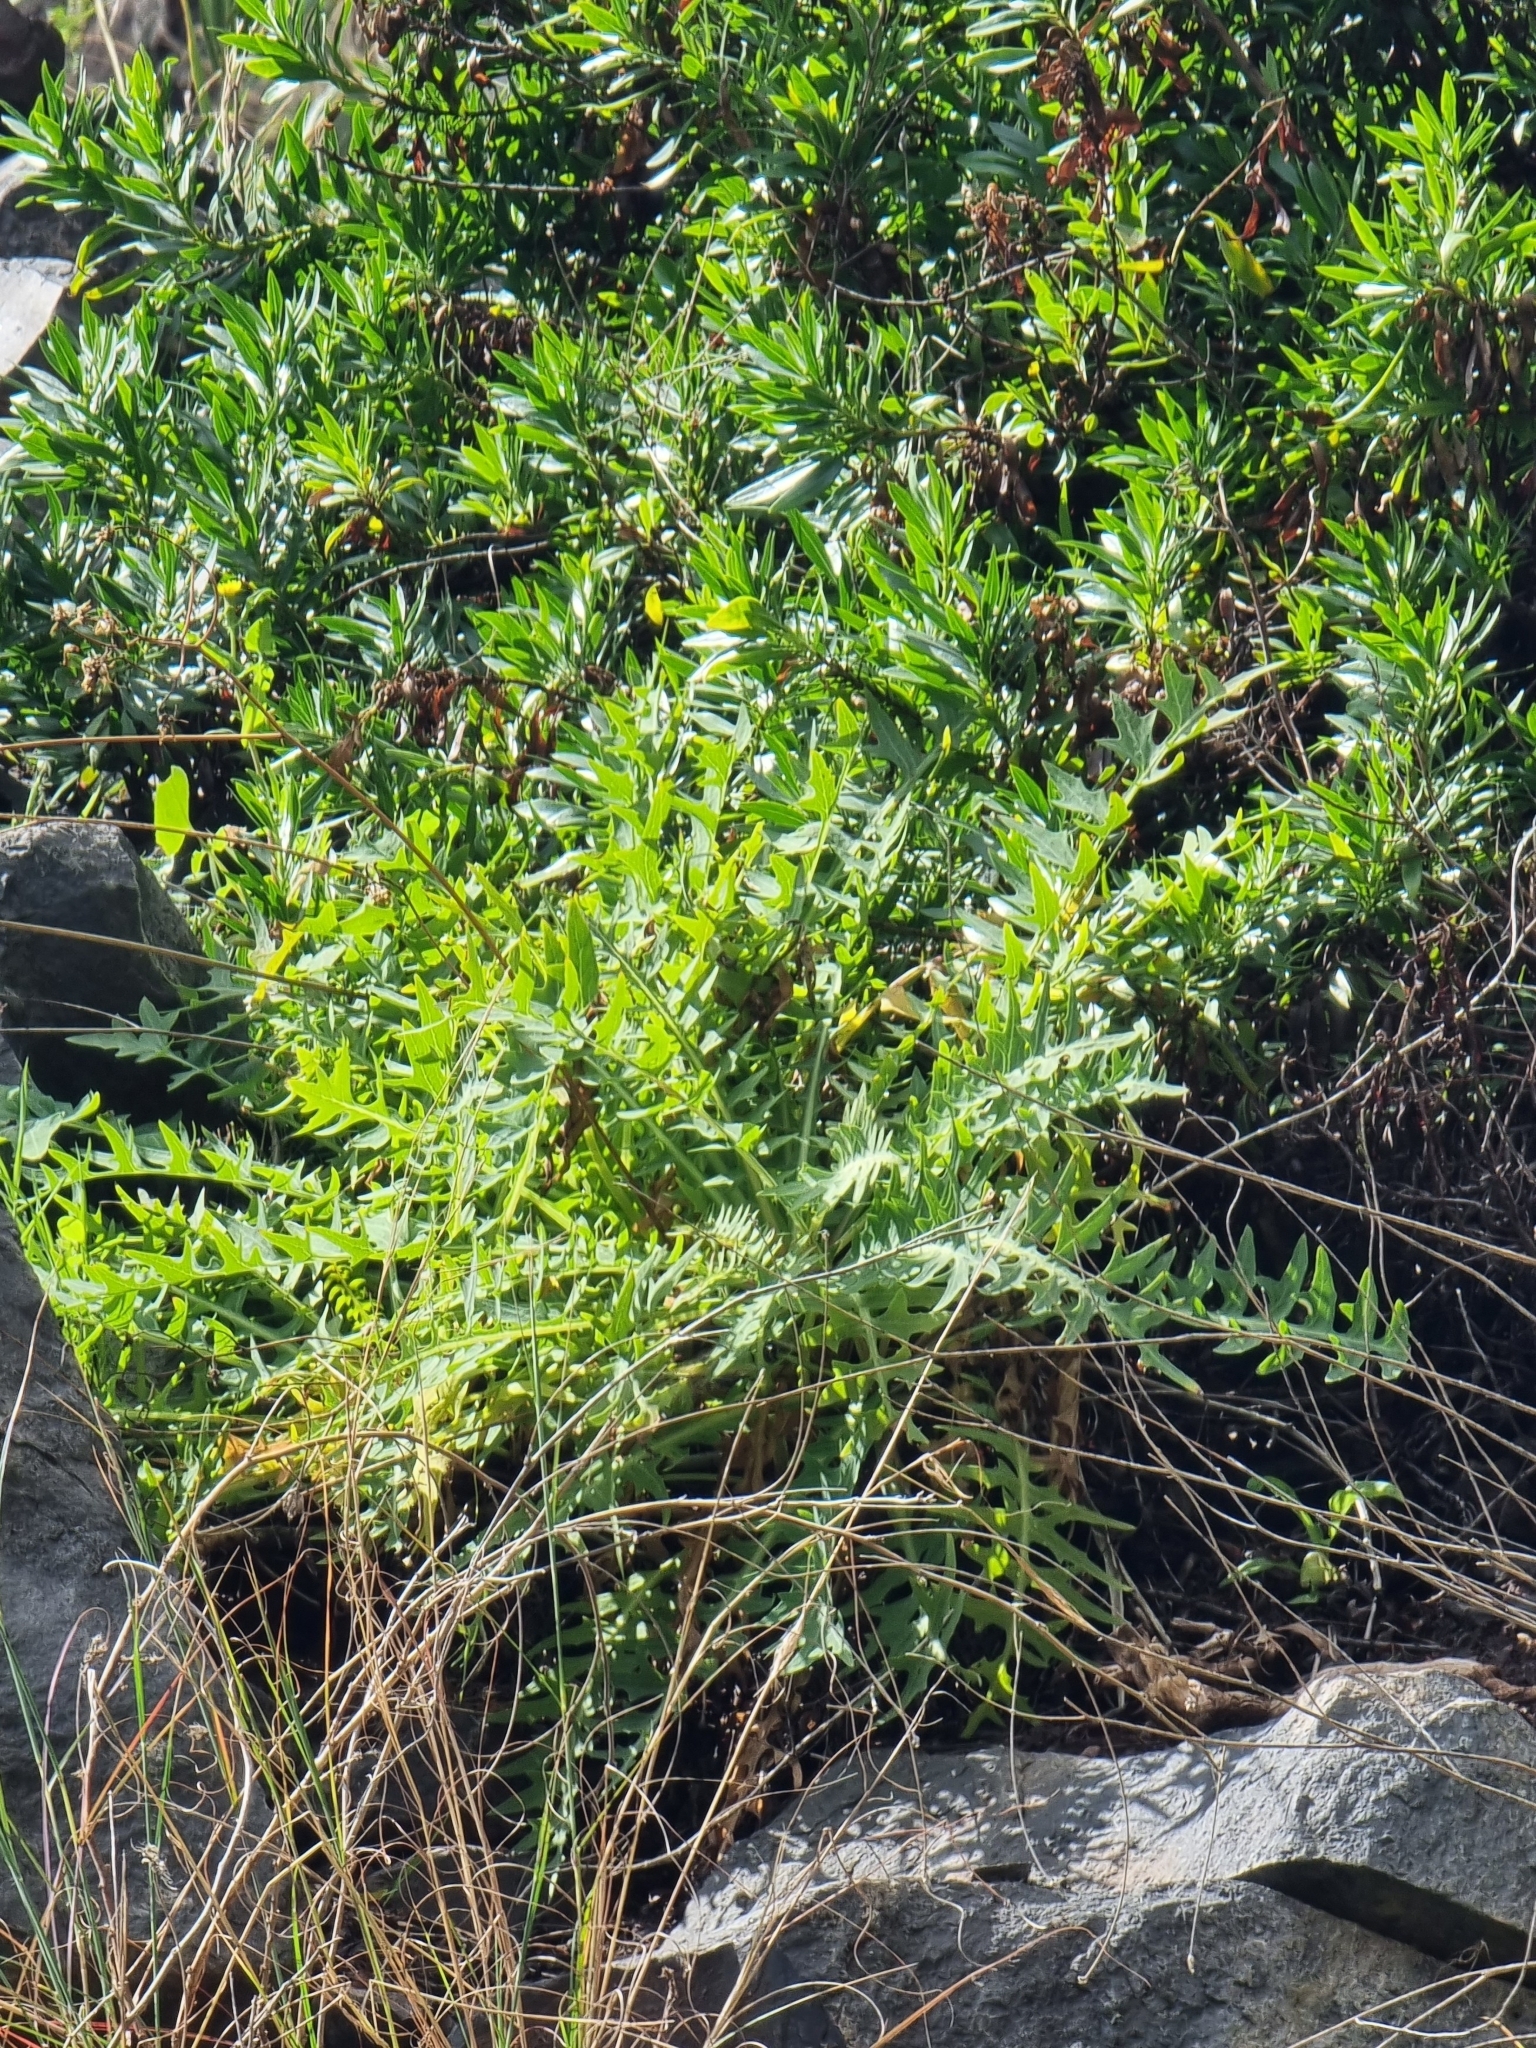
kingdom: Plantae
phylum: Tracheophyta
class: Magnoliopsida
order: Asterales
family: Asteraceae
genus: Sonchus
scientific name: Sonchus ustulatus
